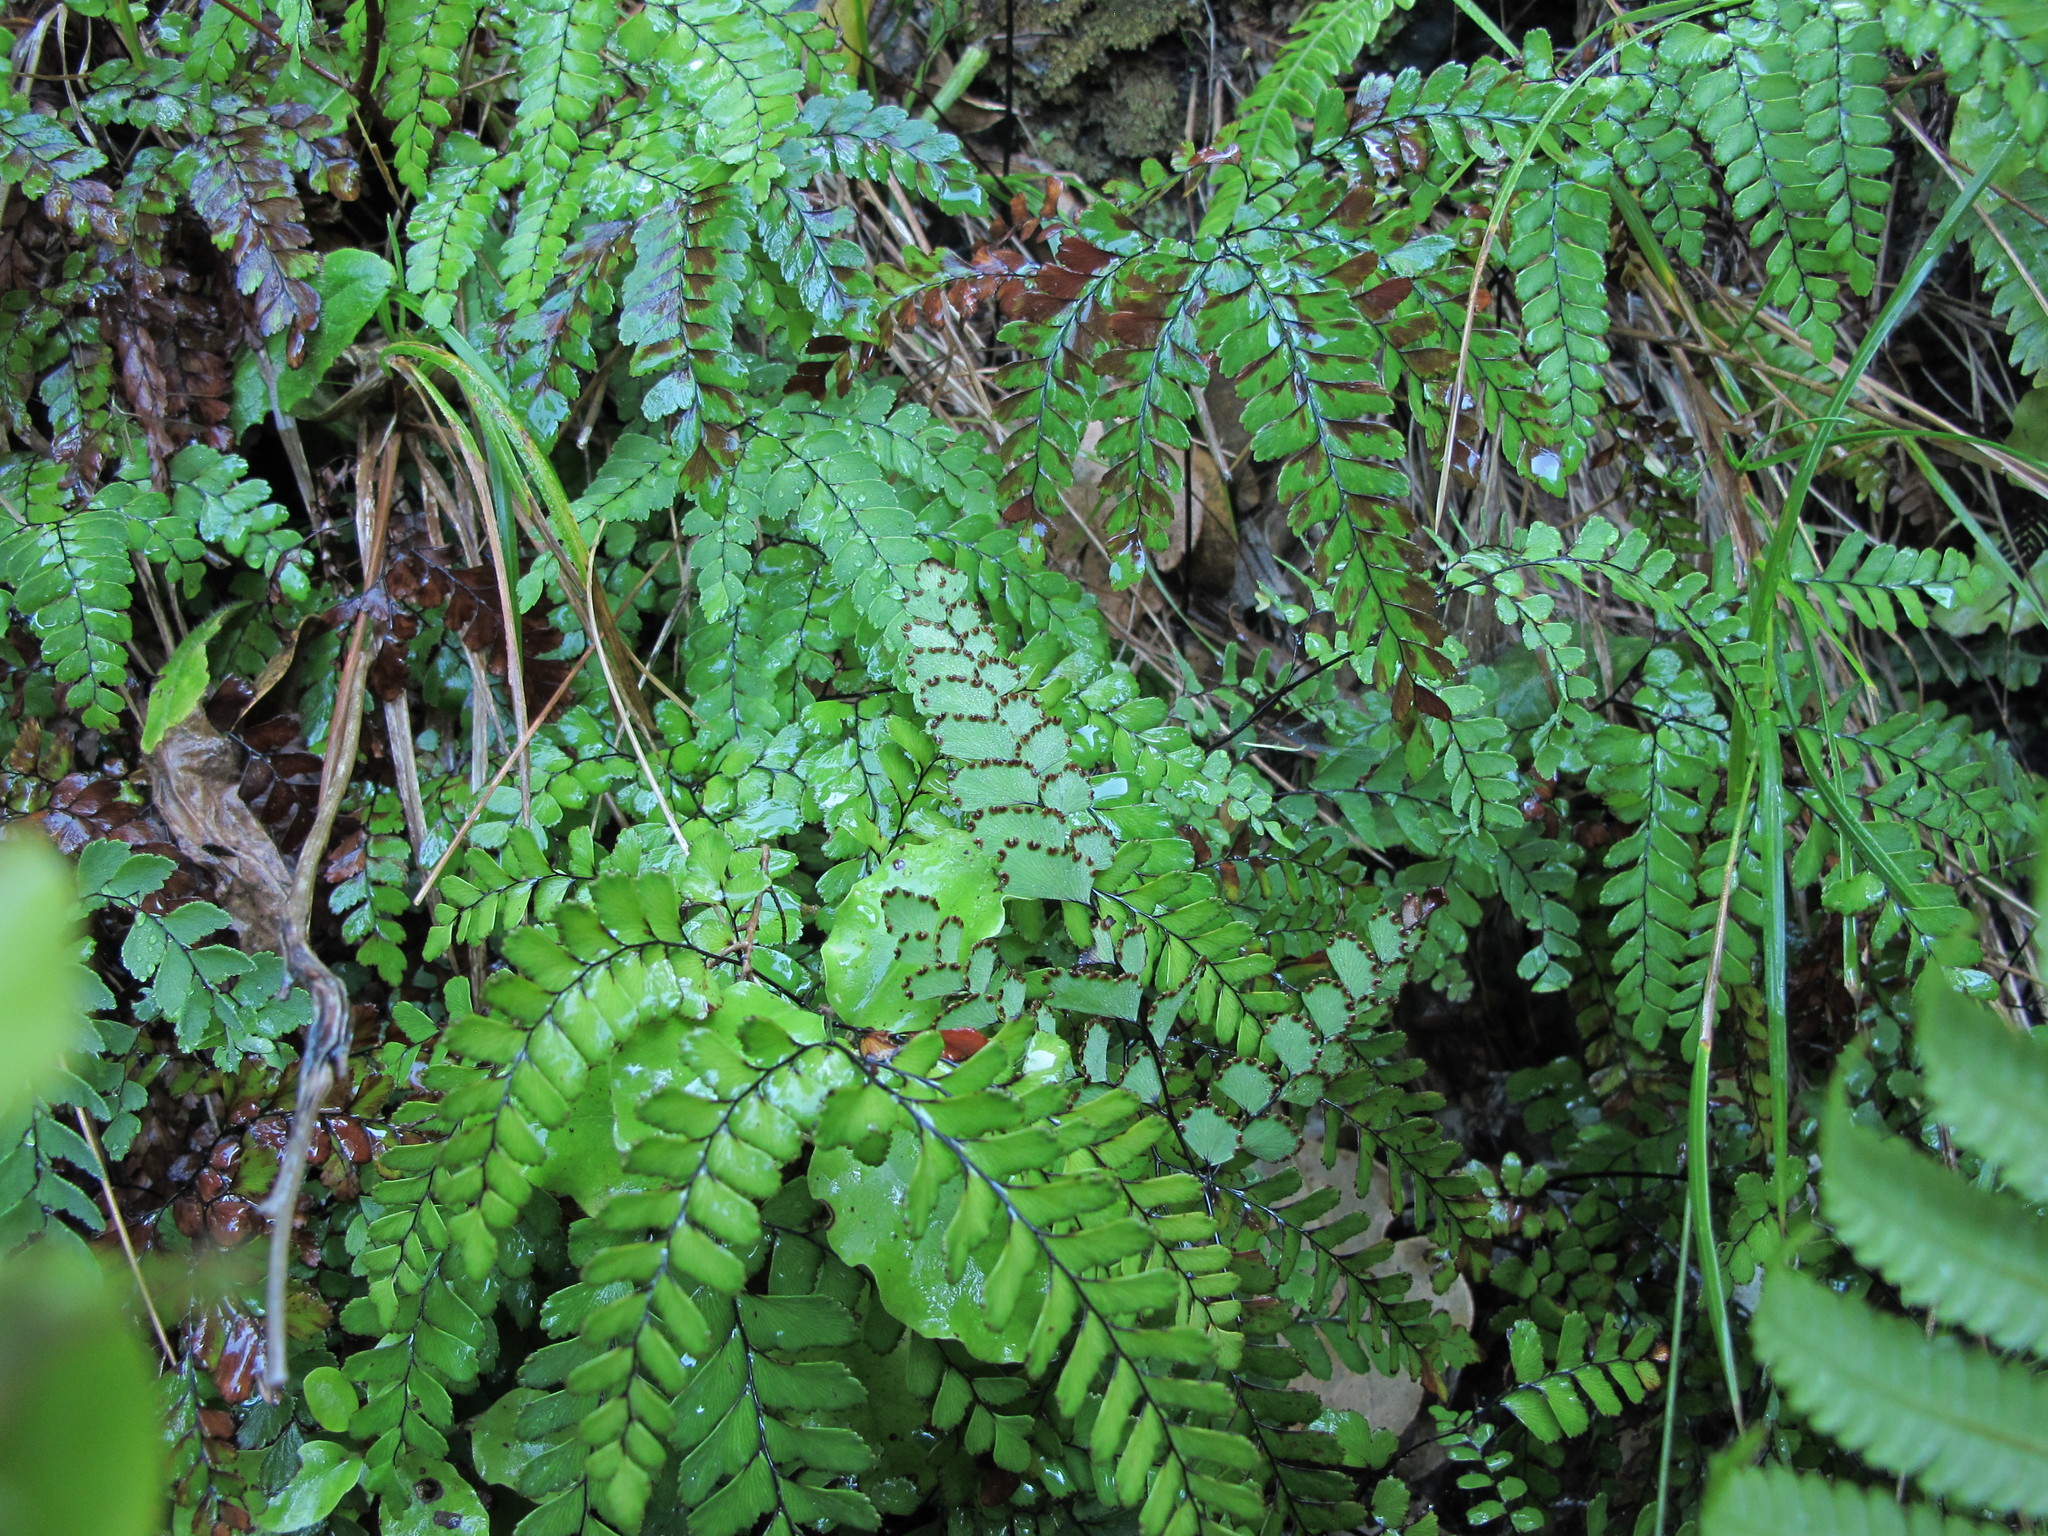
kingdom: Plantae
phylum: Tracheophyta
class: Polypodiopsida
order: Polypodiales
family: Pteridaceae
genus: Adiantum
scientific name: Adiantum cunninghamii
